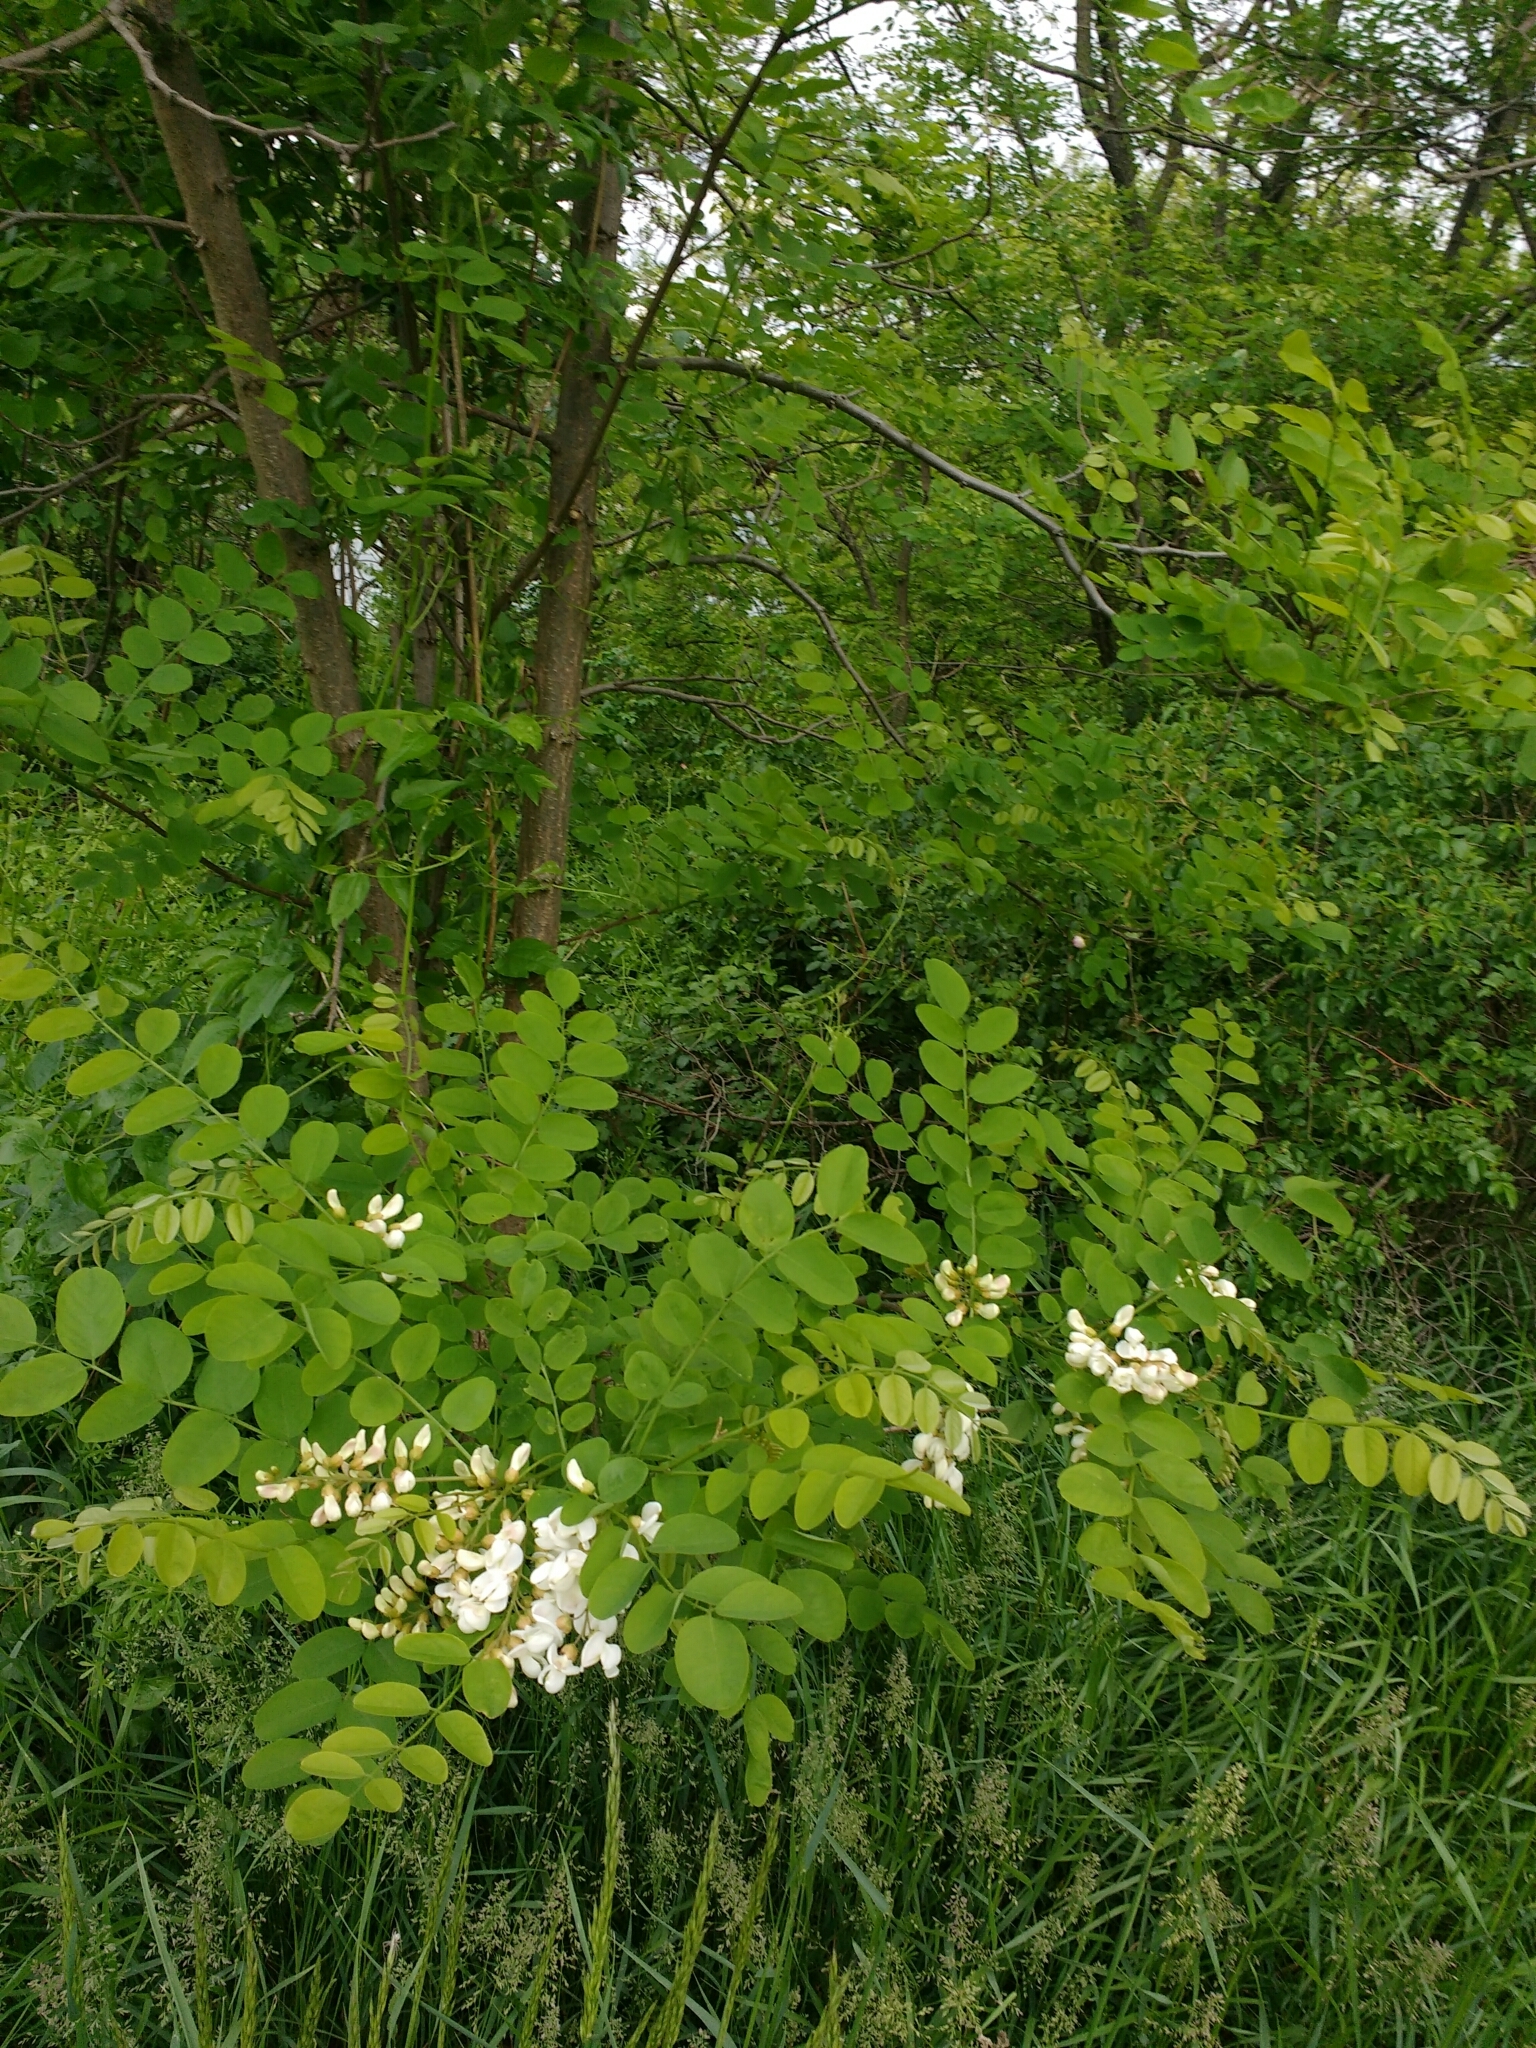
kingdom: Plantae
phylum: Tracheophyta
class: Magnoliopsida
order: Fabales
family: Fabaceae
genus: Robinia
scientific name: Robinia pseudoacacia
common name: Black locust
